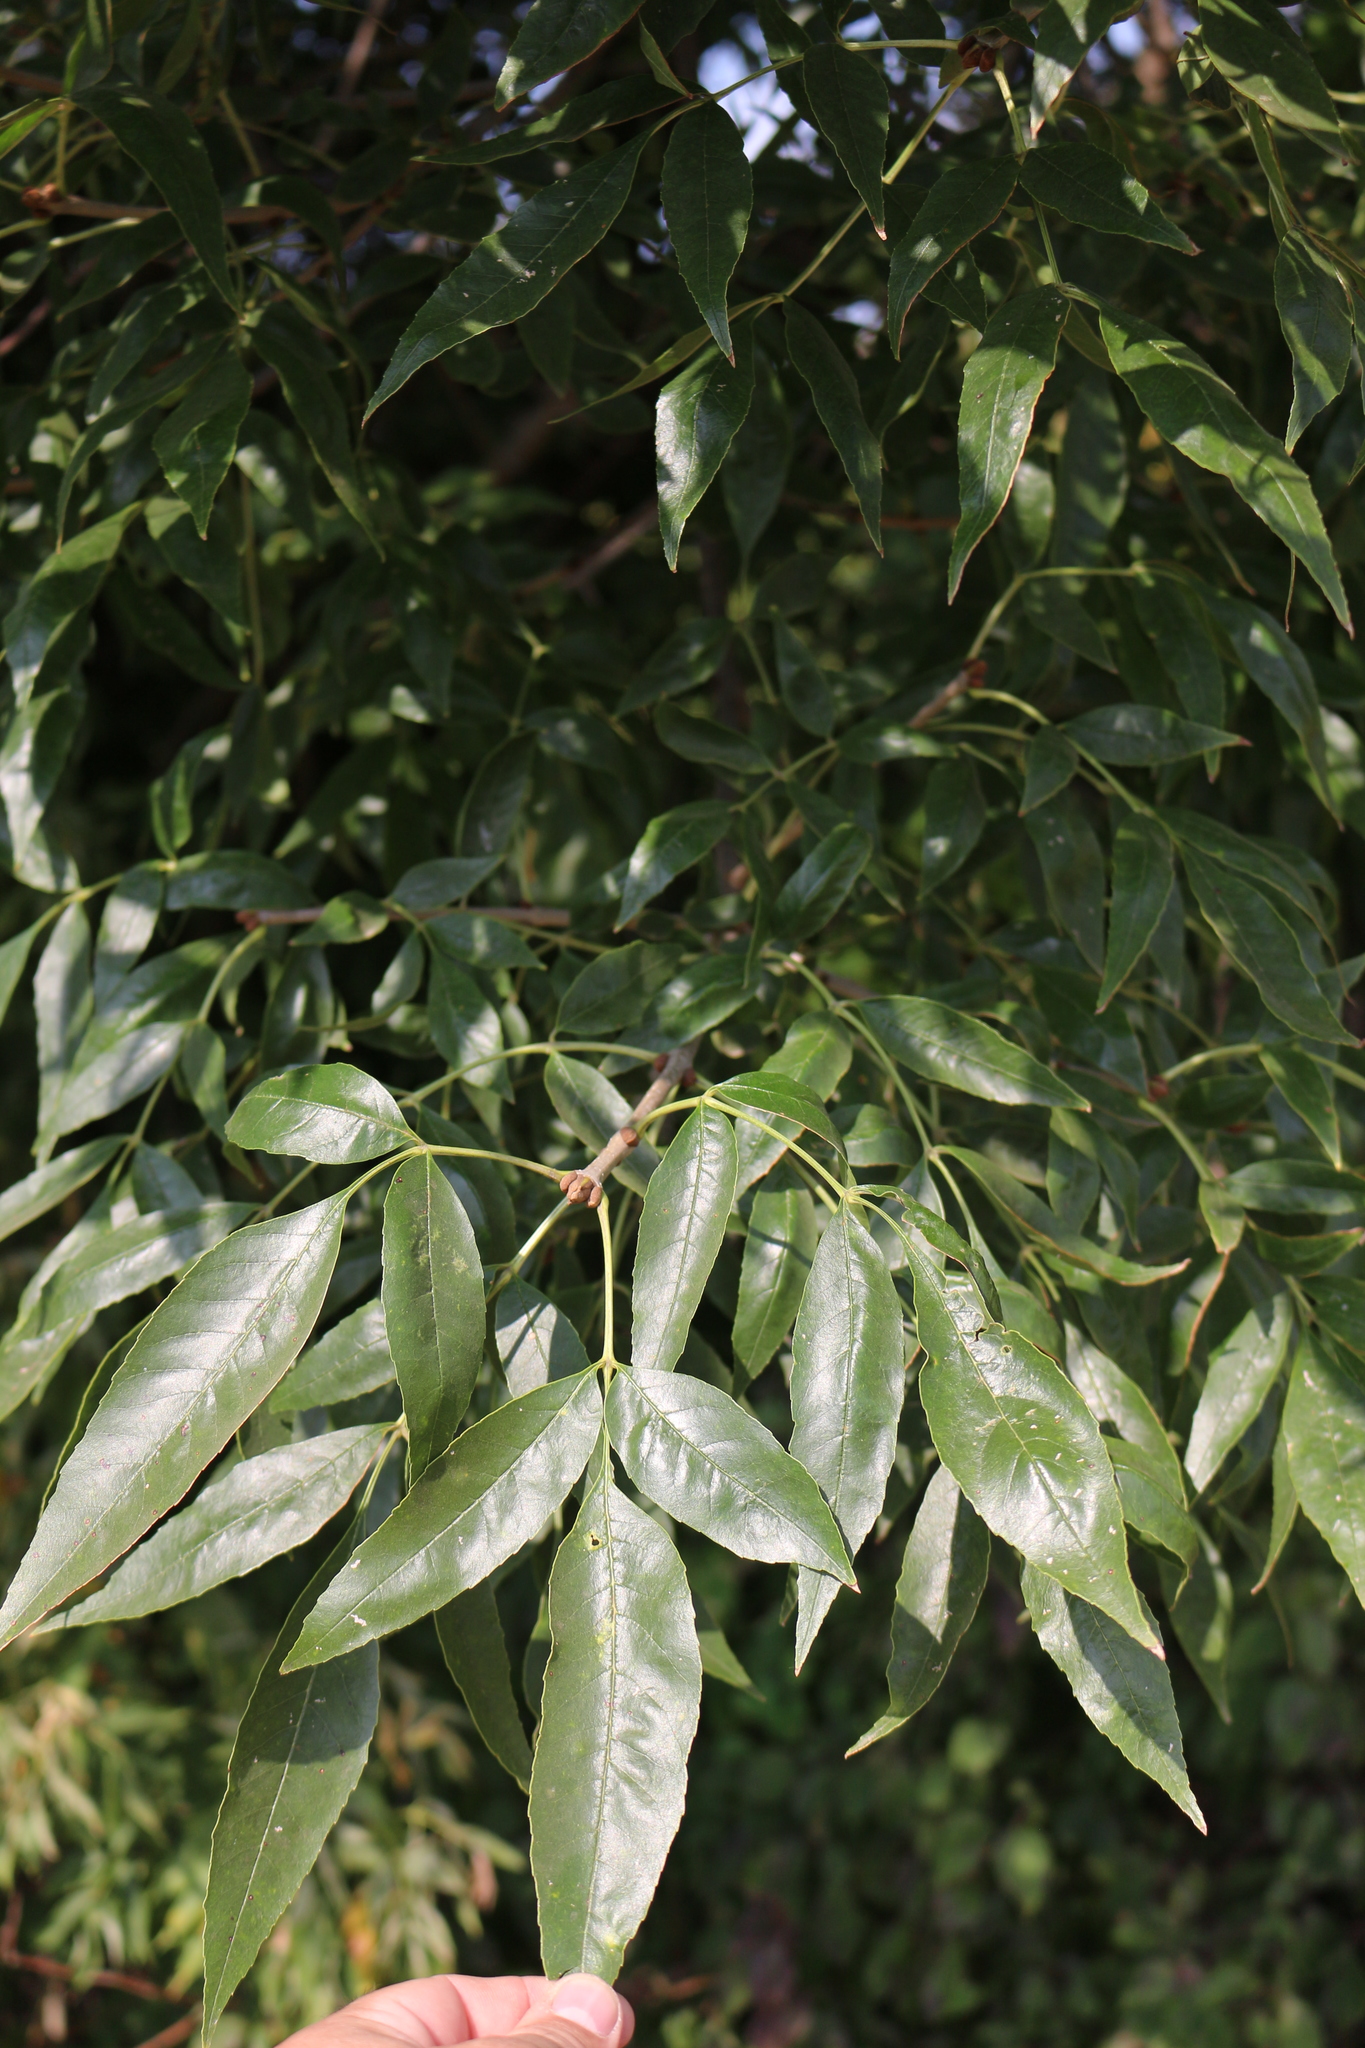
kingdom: Plantae
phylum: Tracheophyta
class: Magnoliopsida
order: Lamiales
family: Oleaceae
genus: Fraxinus
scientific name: Fraxinus excelsior
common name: European ash
